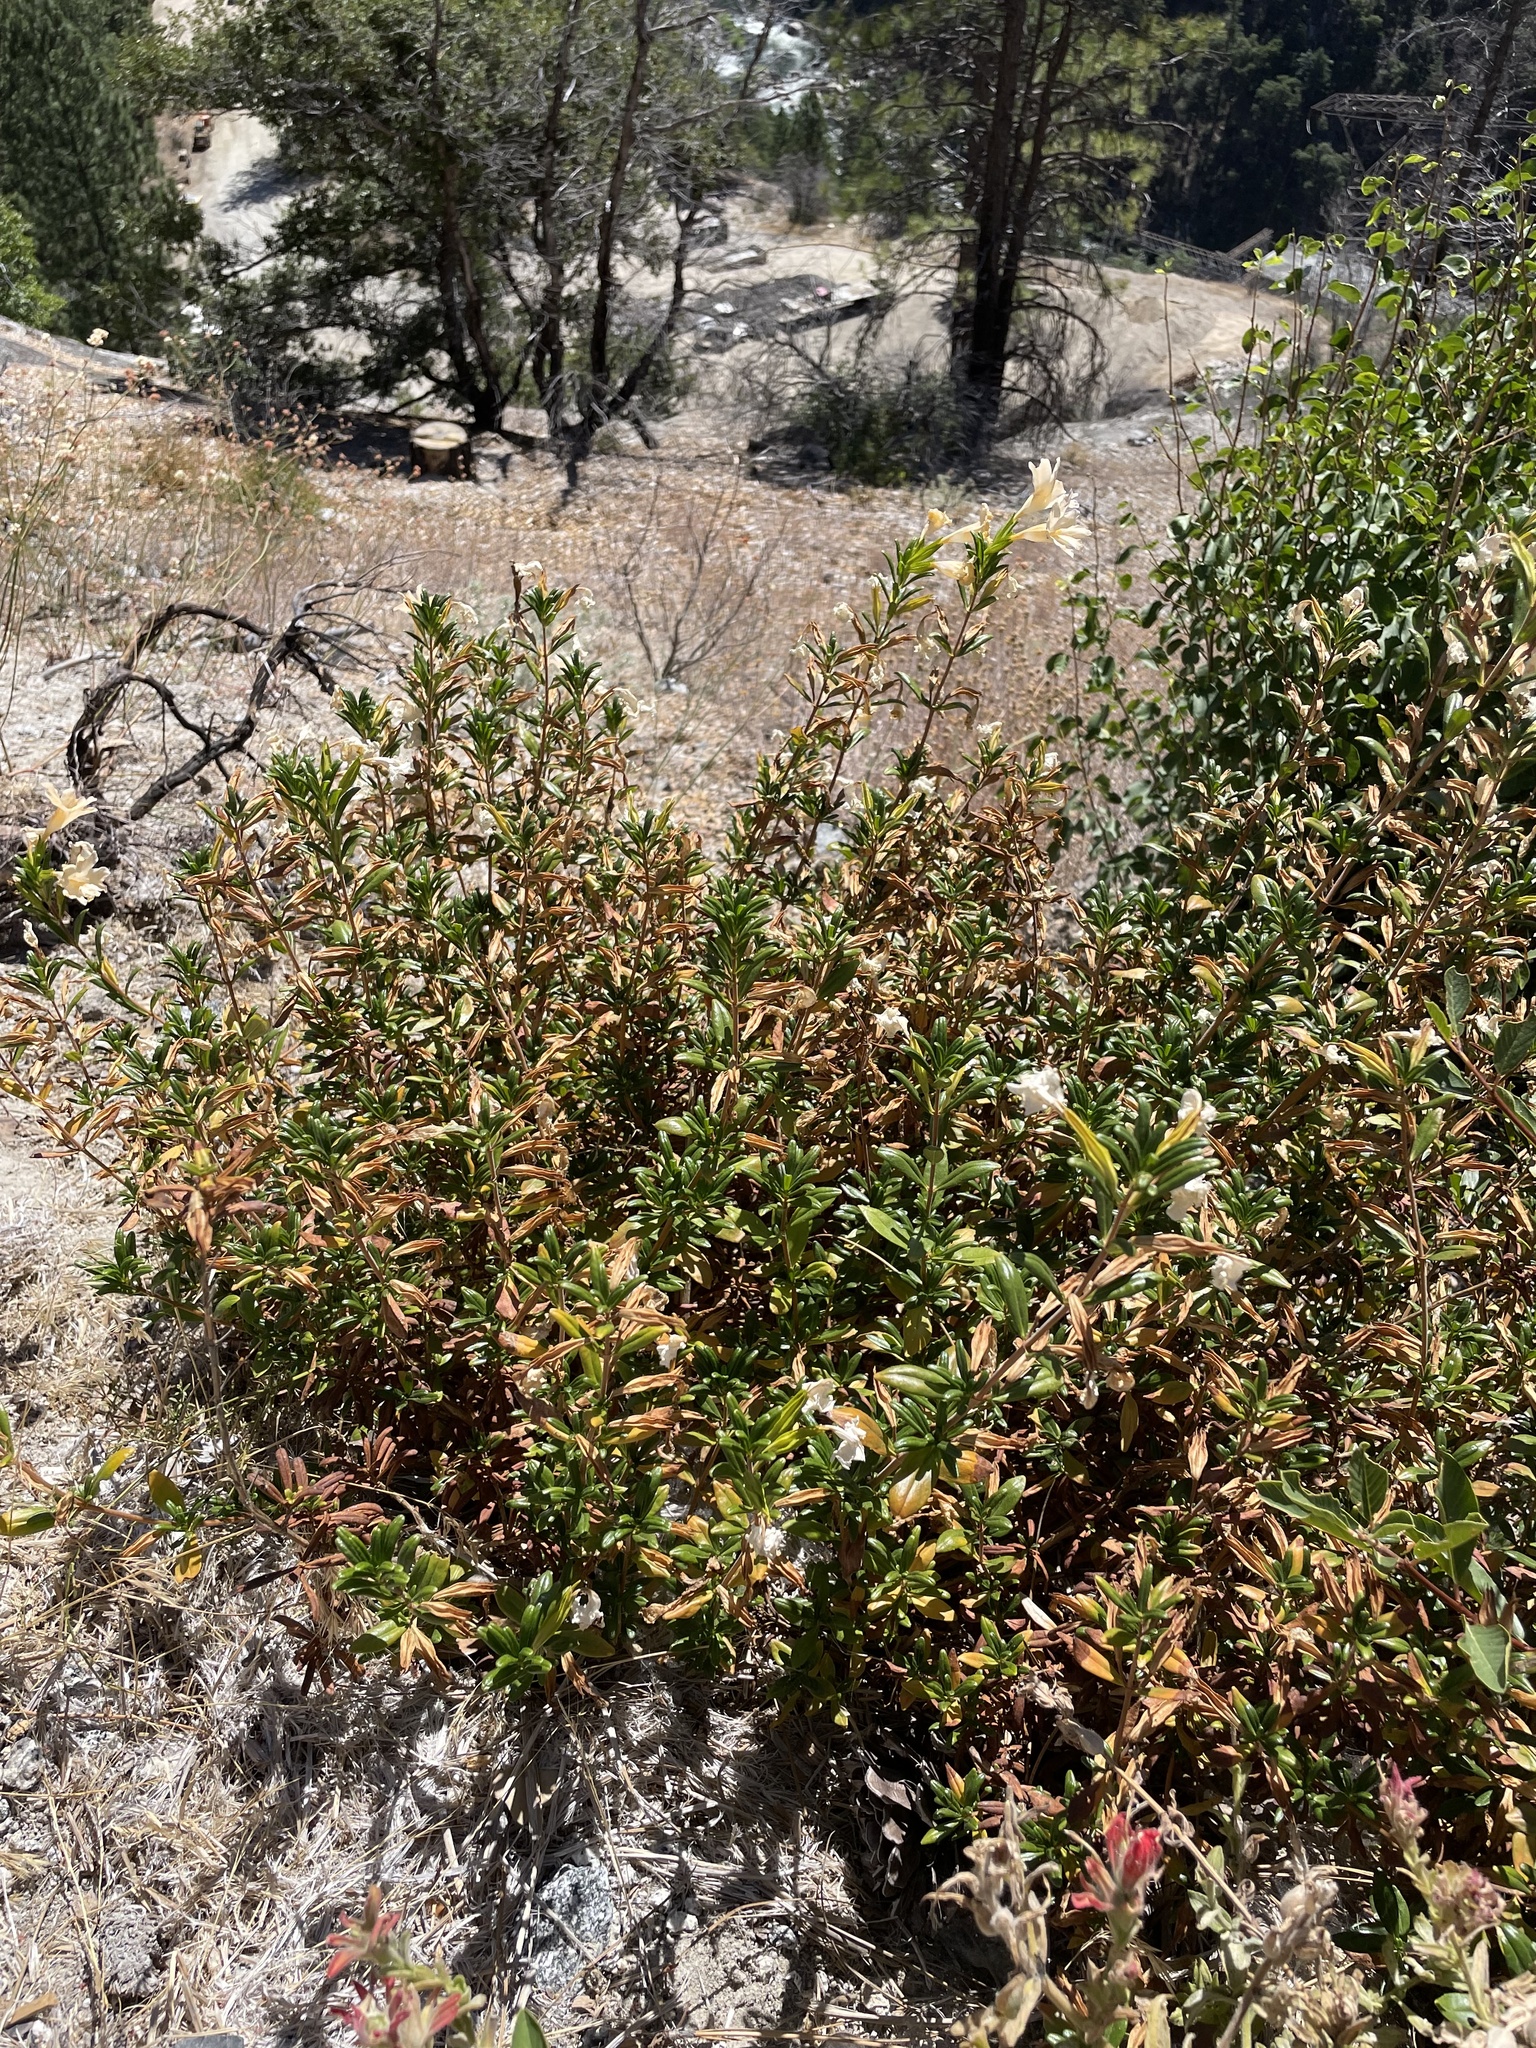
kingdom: Plantae
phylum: Tracheophyta
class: Magnoliopsida
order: Lamiales
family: Phrymaceae
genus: Diplacus
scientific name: Diplacus grandiflorus
